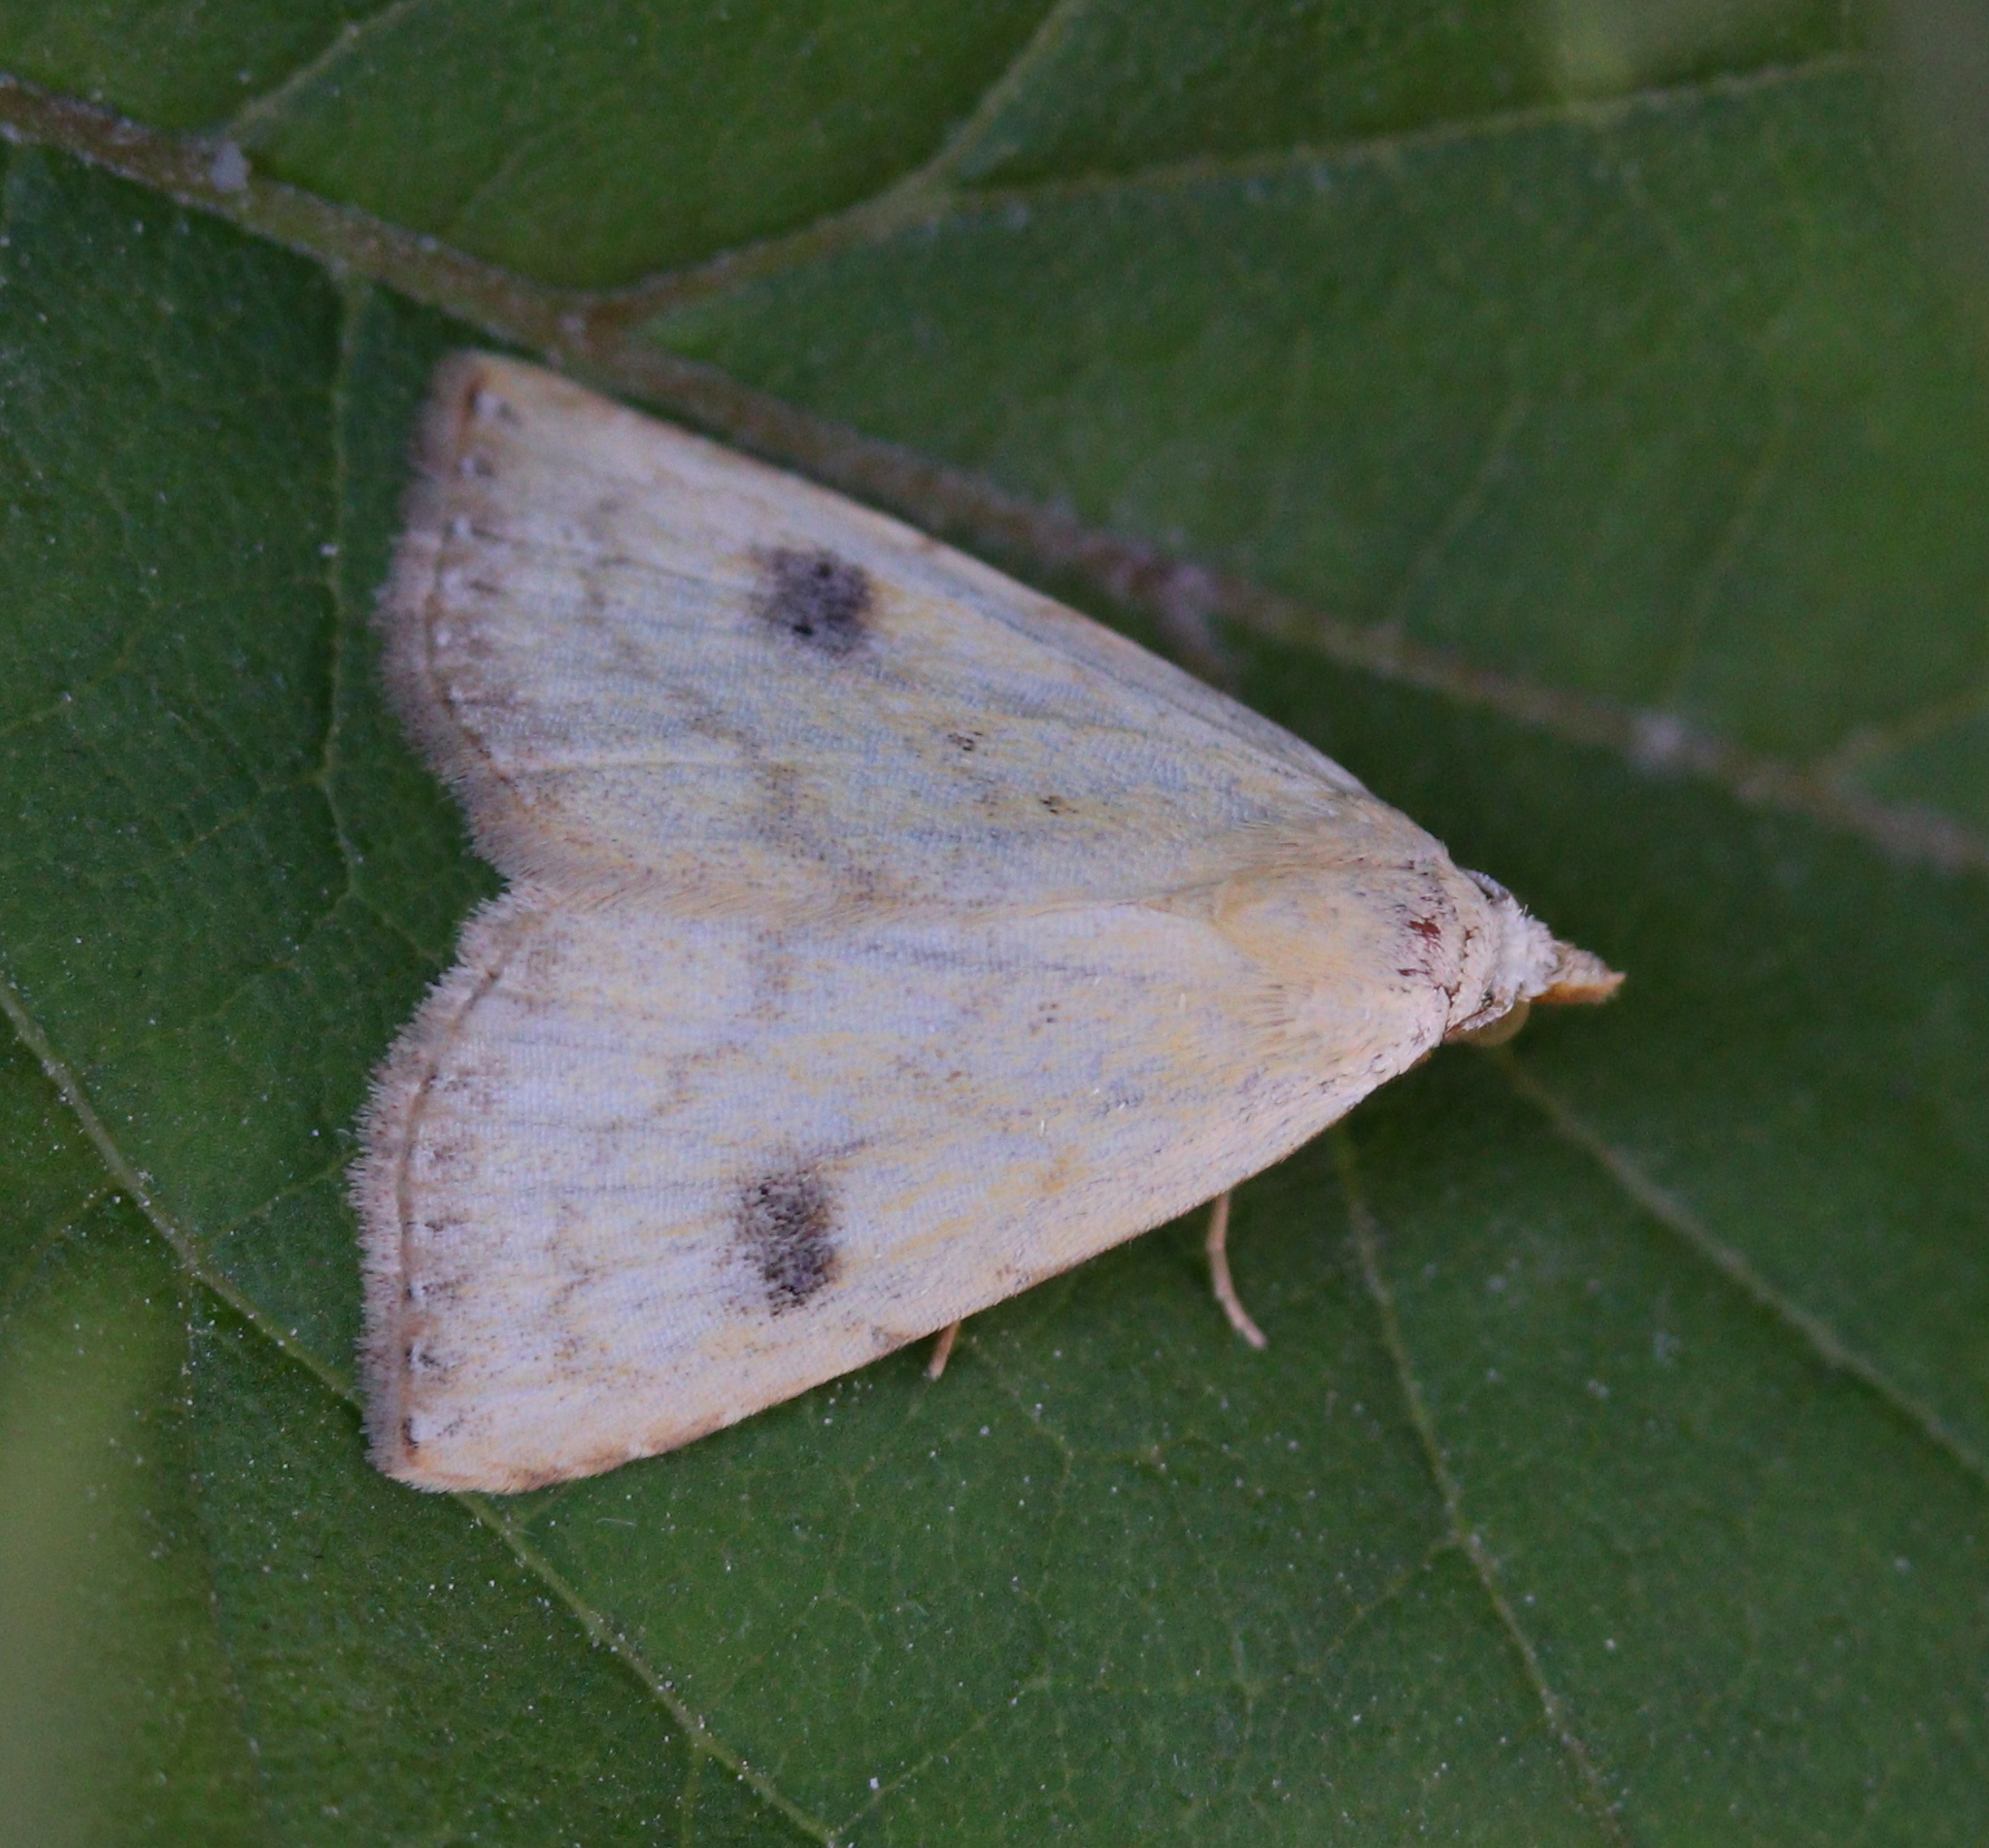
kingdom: Animalia
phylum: Arthropoda
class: Insecta
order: Lepidoptera
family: Erebidae
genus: Rivula
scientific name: Rivula sericealis
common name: Straw dot
